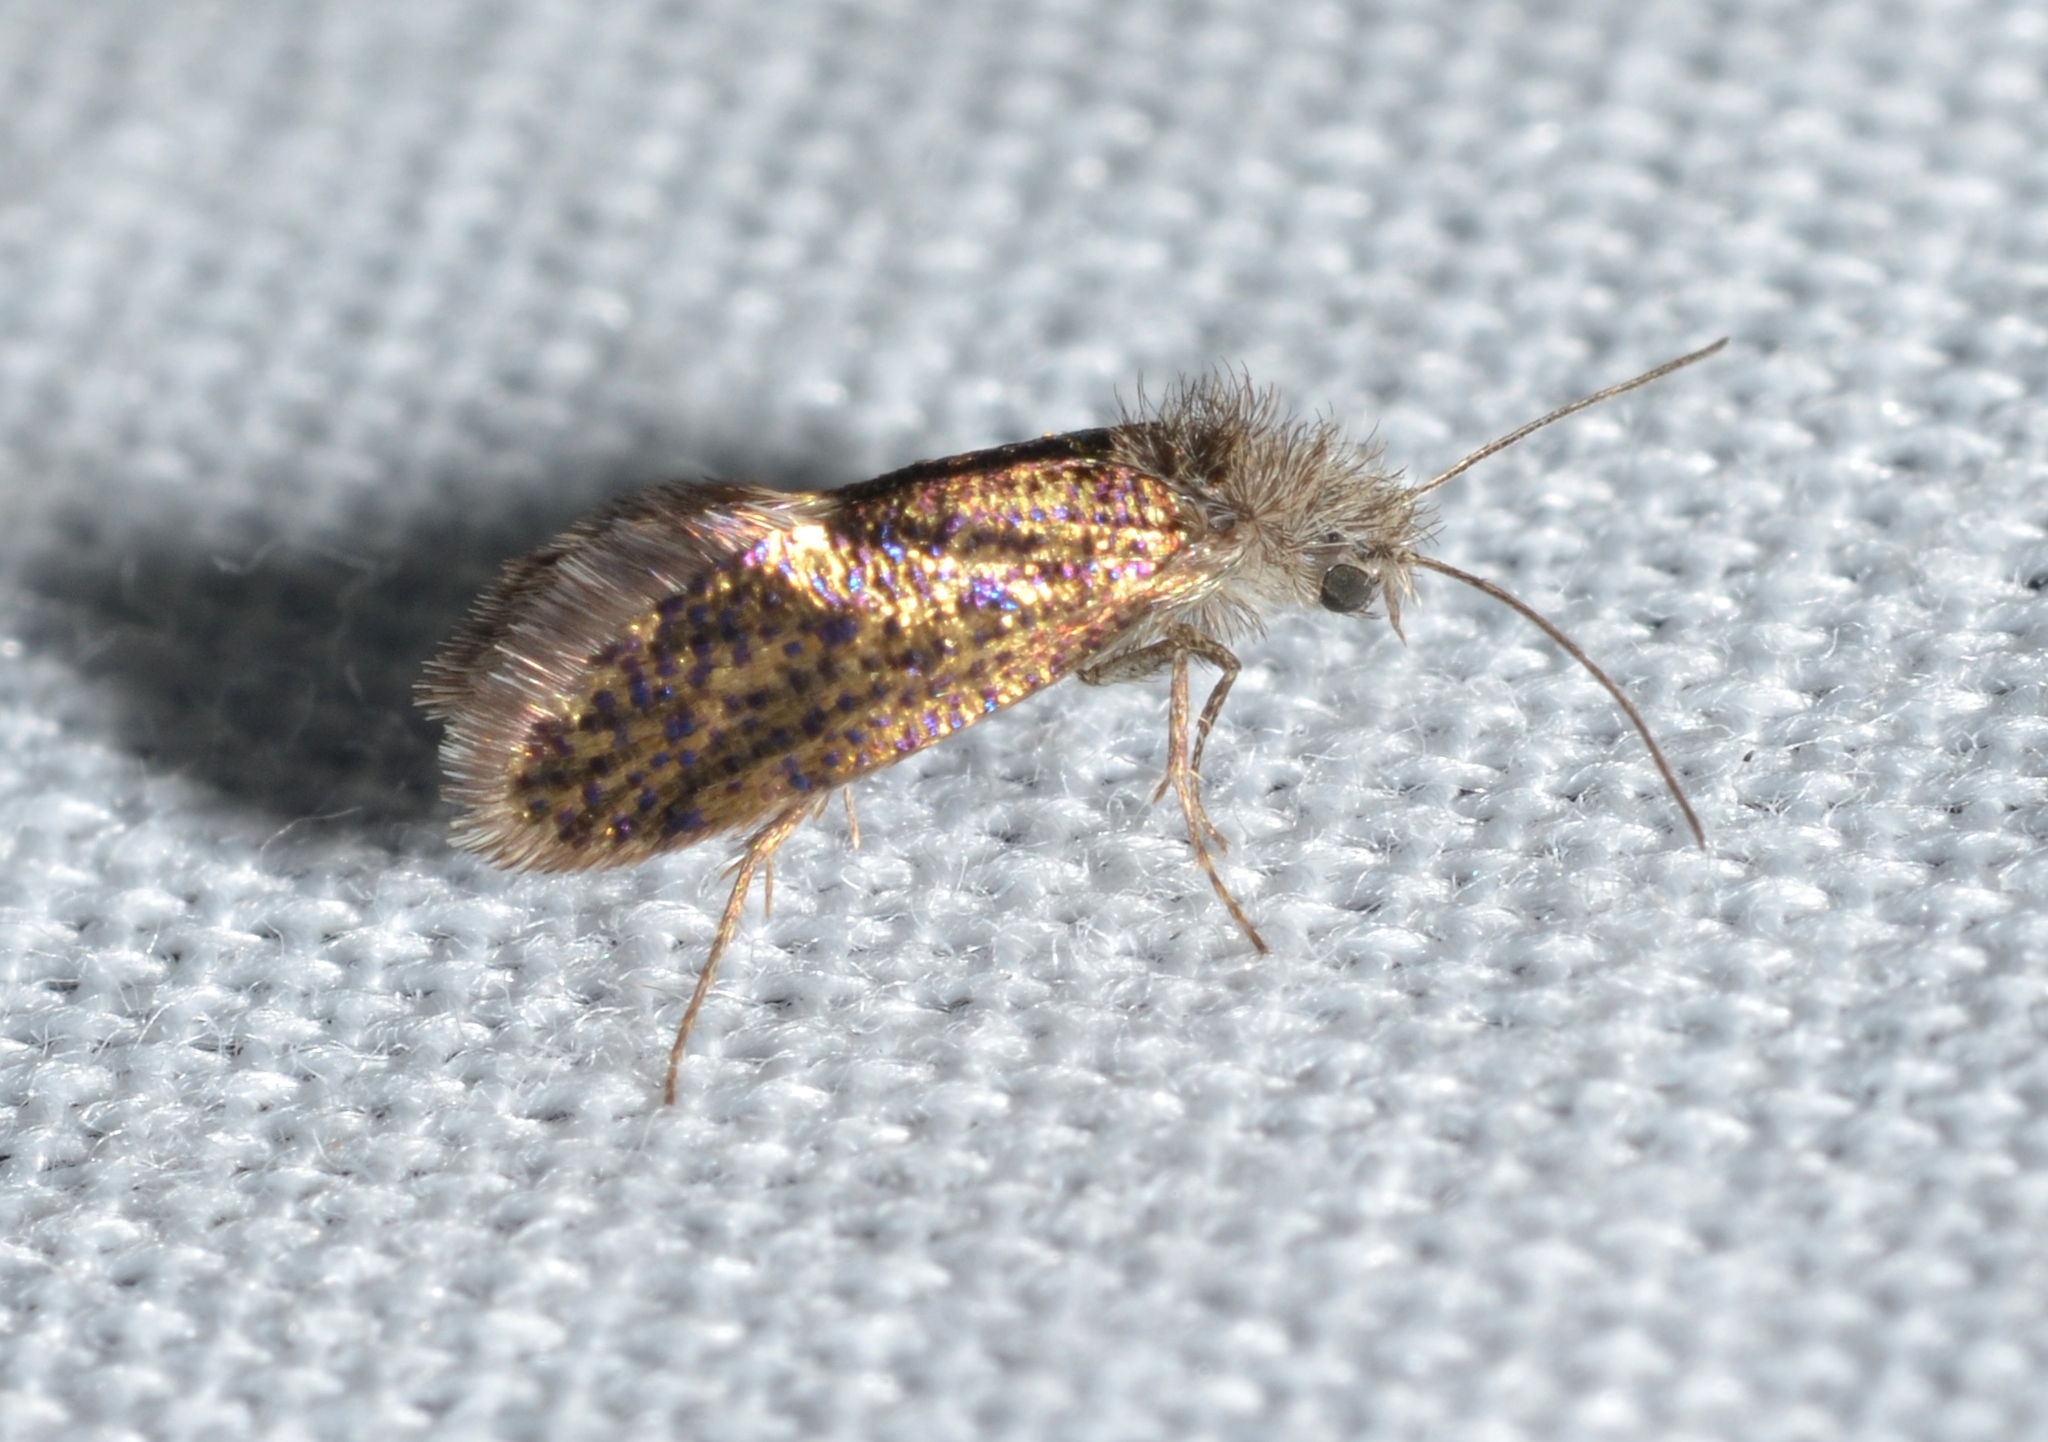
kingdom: Animalia
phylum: Arthropoda
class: Insecta
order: Lepidoptera
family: Eriocraniidae
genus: Dyseriocrania
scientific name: Dyseriocrania griseocapitella
